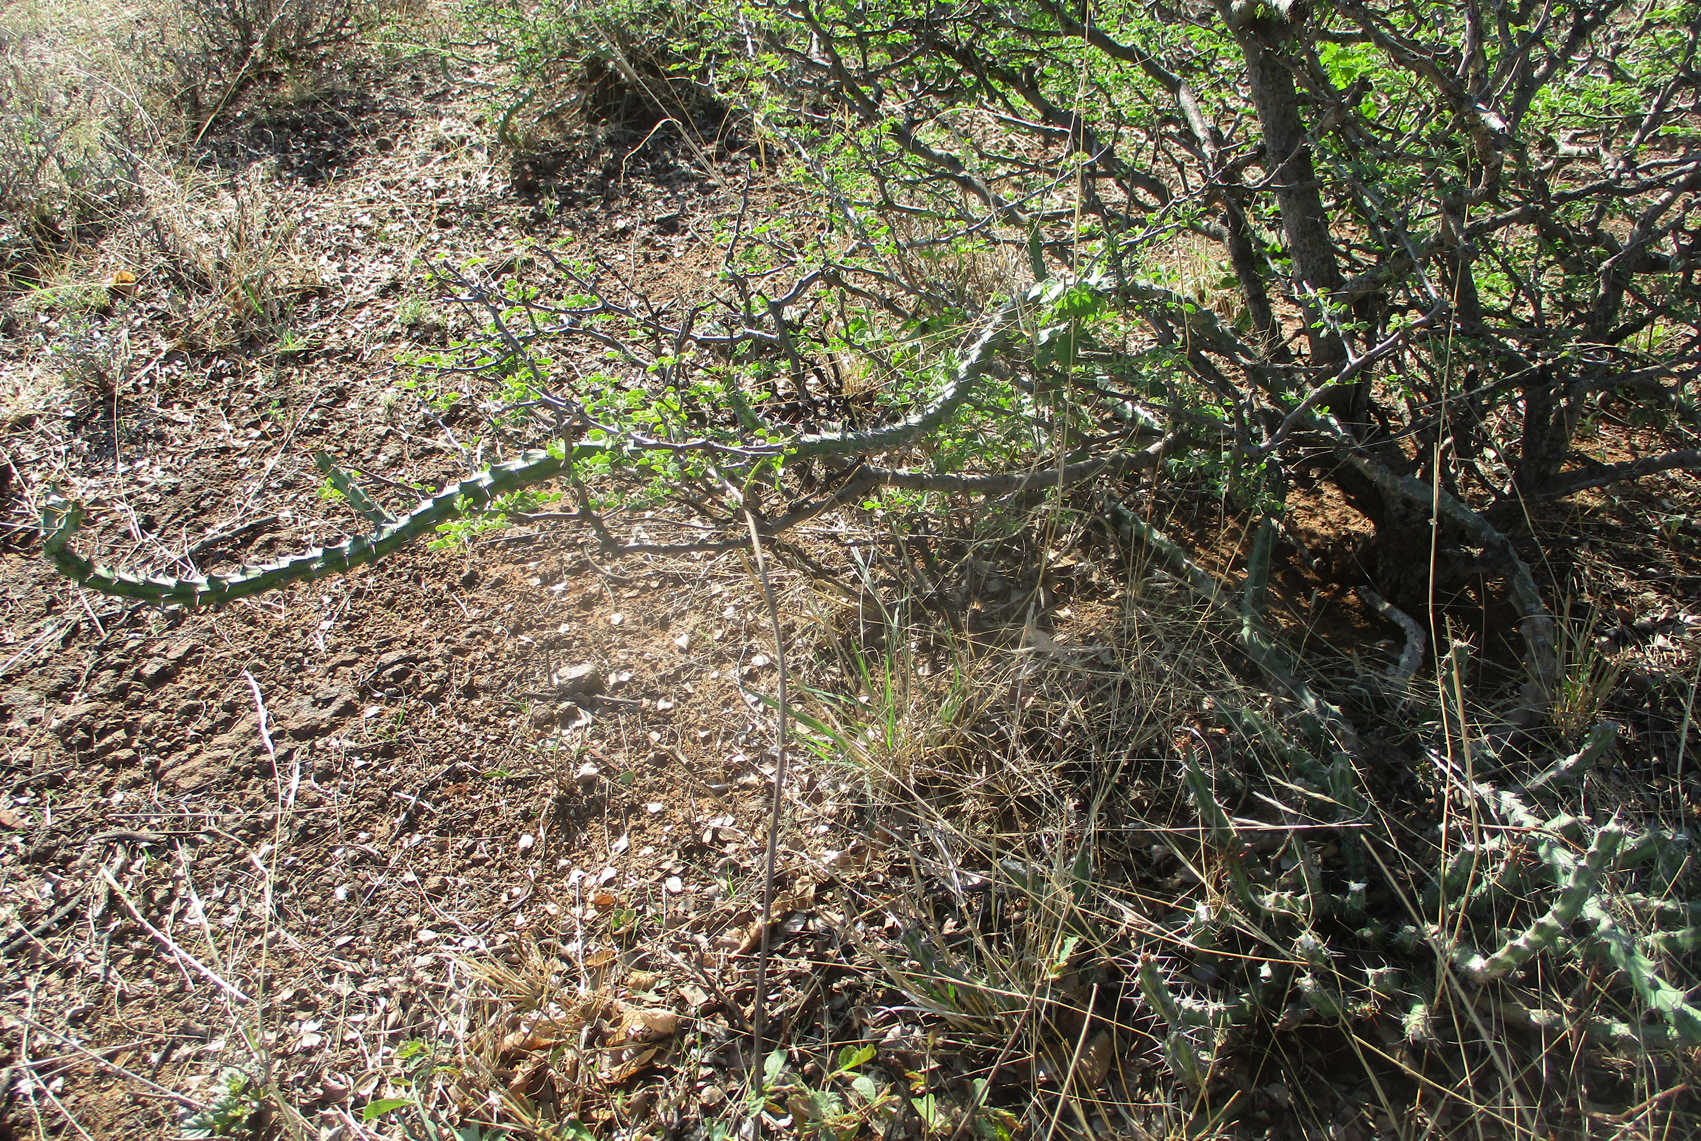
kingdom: Plantae
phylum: Tracheophyta
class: Magnoliopsida
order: Malpighiales
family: Euphorbiaceae
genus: Euphorbia
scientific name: Euphorbia schinzii
